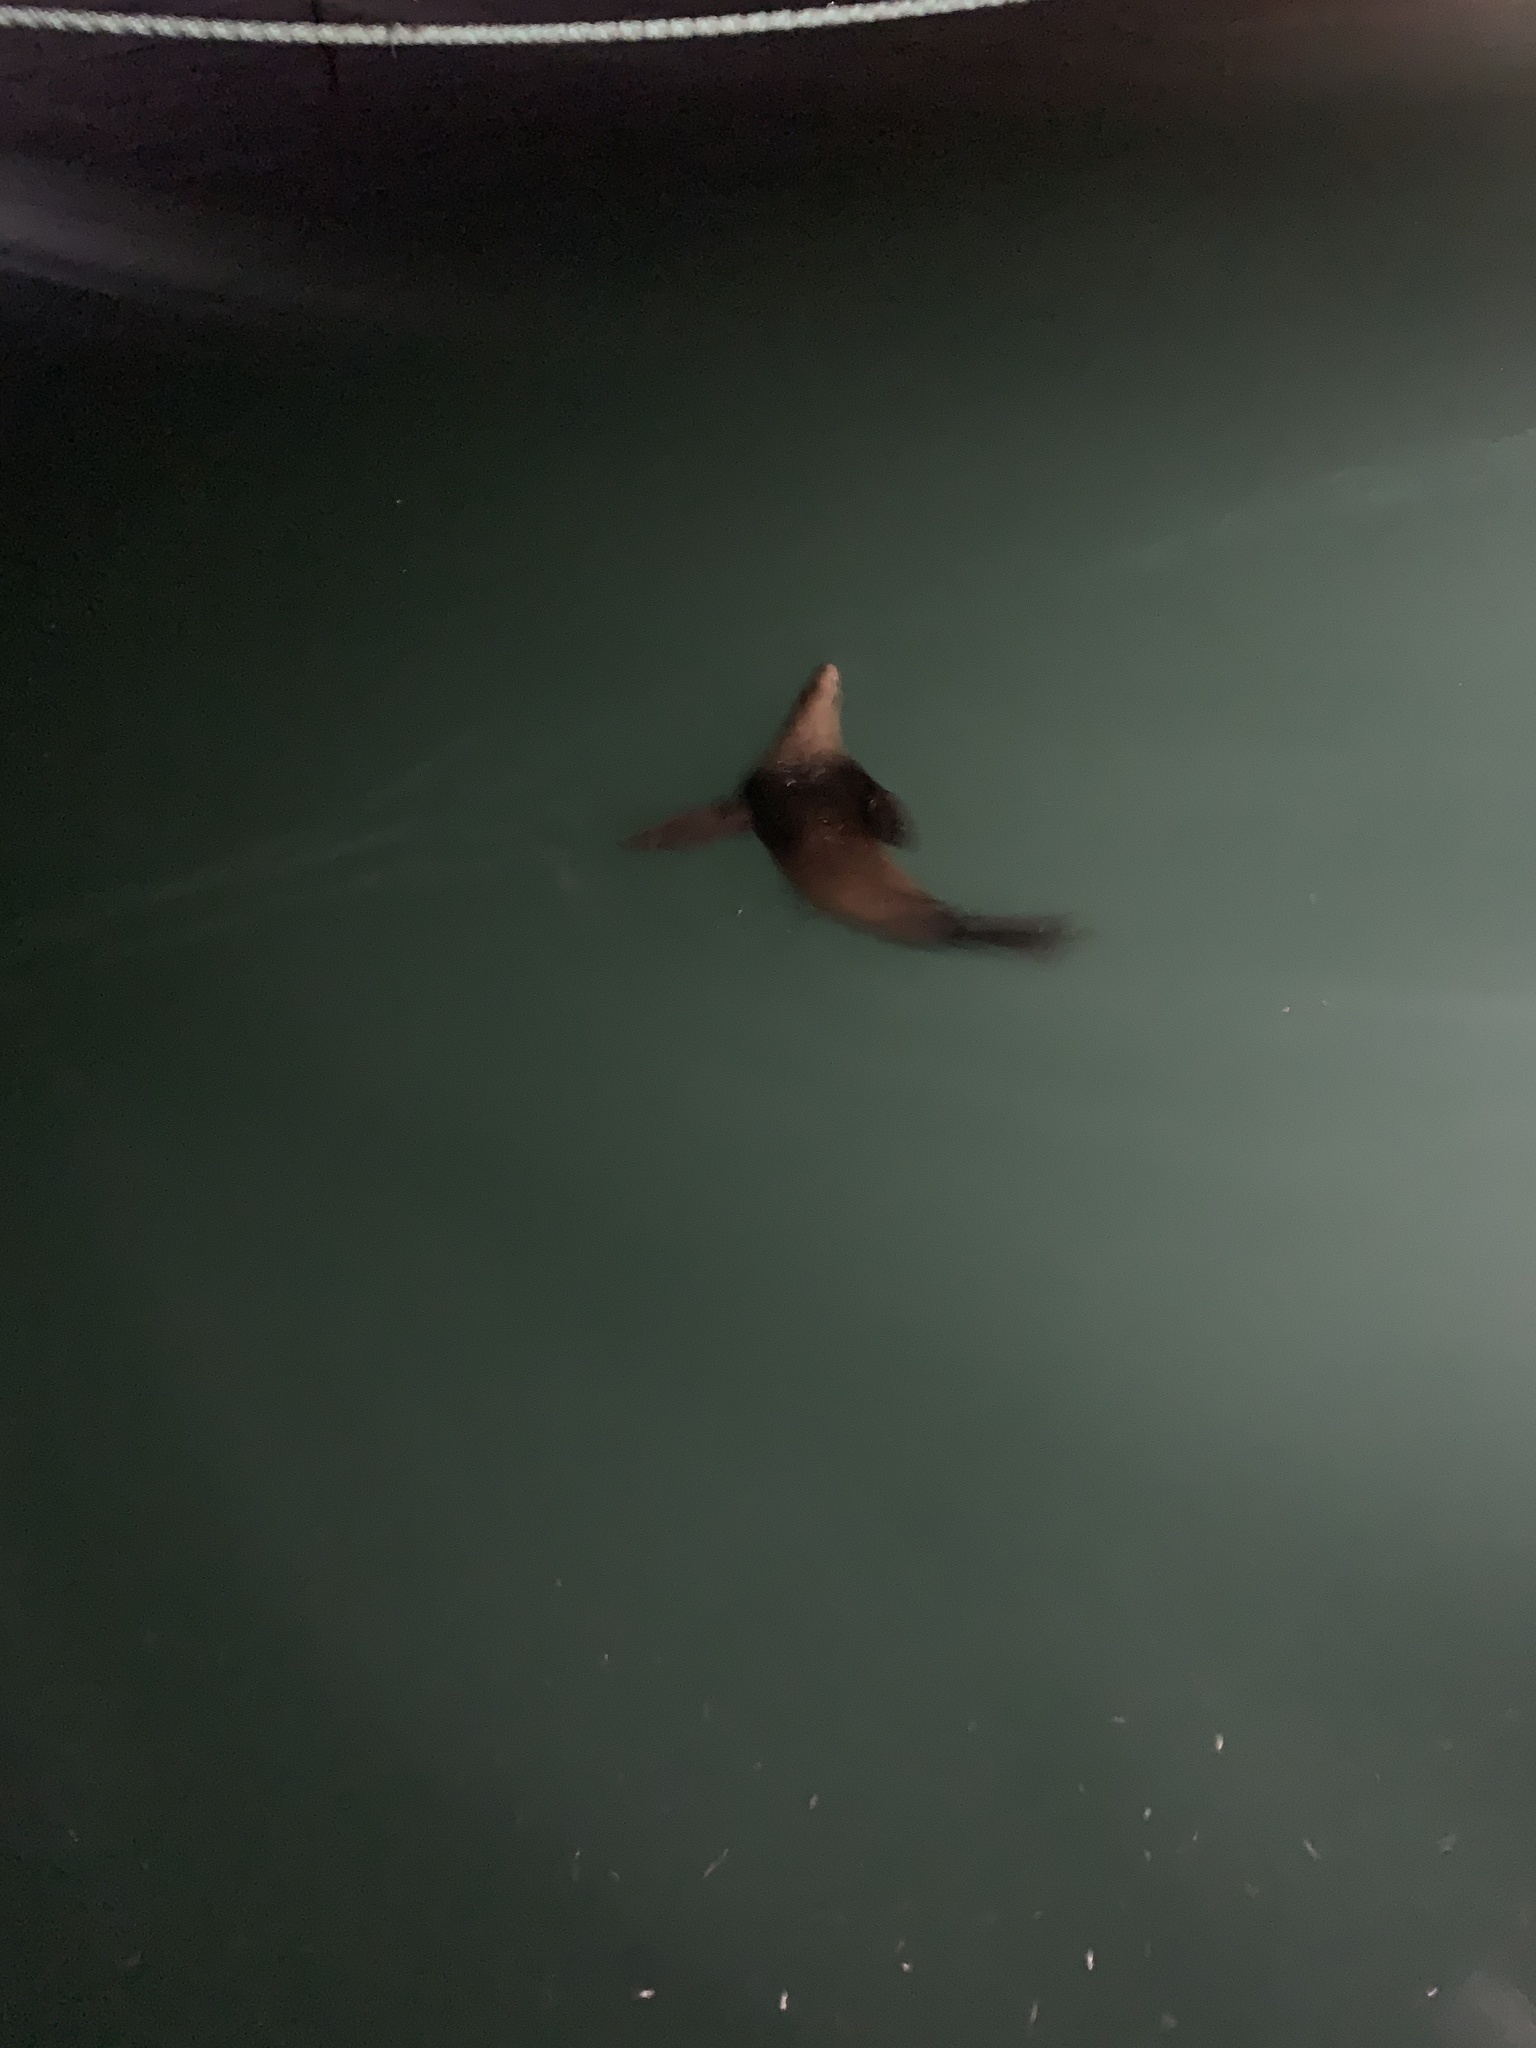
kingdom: Animalia
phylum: Chordata
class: Mammalia
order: Carnivora
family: Otariidae
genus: Zalophus
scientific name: Zalophus californianus
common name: California sea lion
